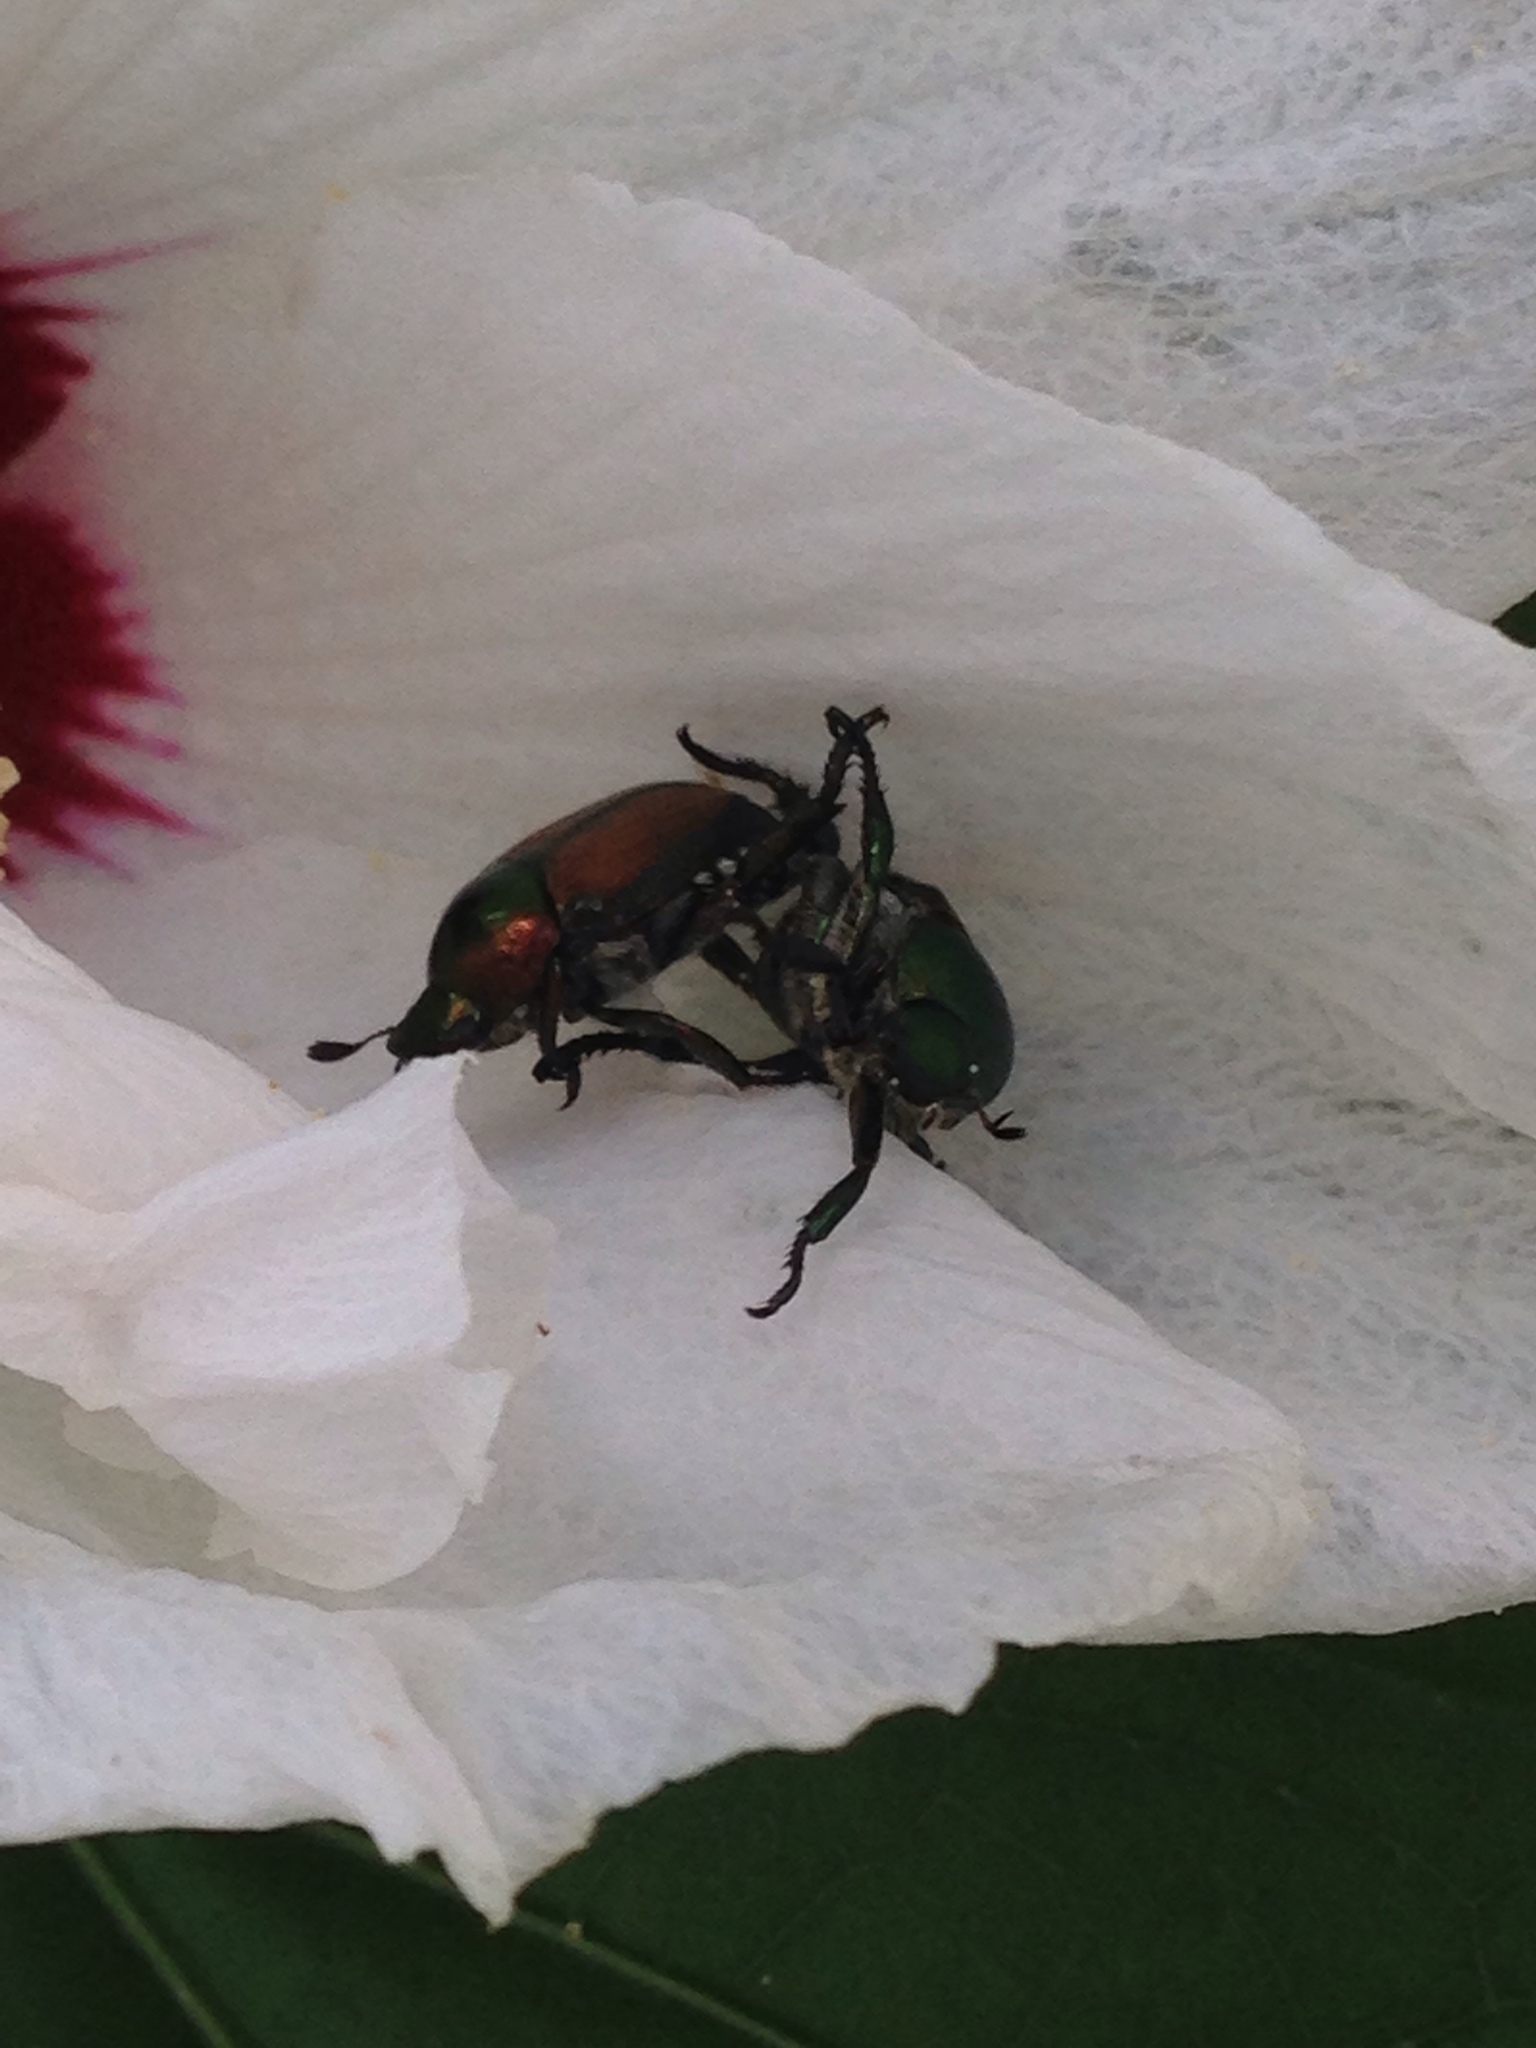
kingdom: Animalia
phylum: Arthropoda
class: Insecta
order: Coleoptera
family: Scarabaeidae
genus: Popillia
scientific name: Popillia japonica
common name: Japanese beetle
